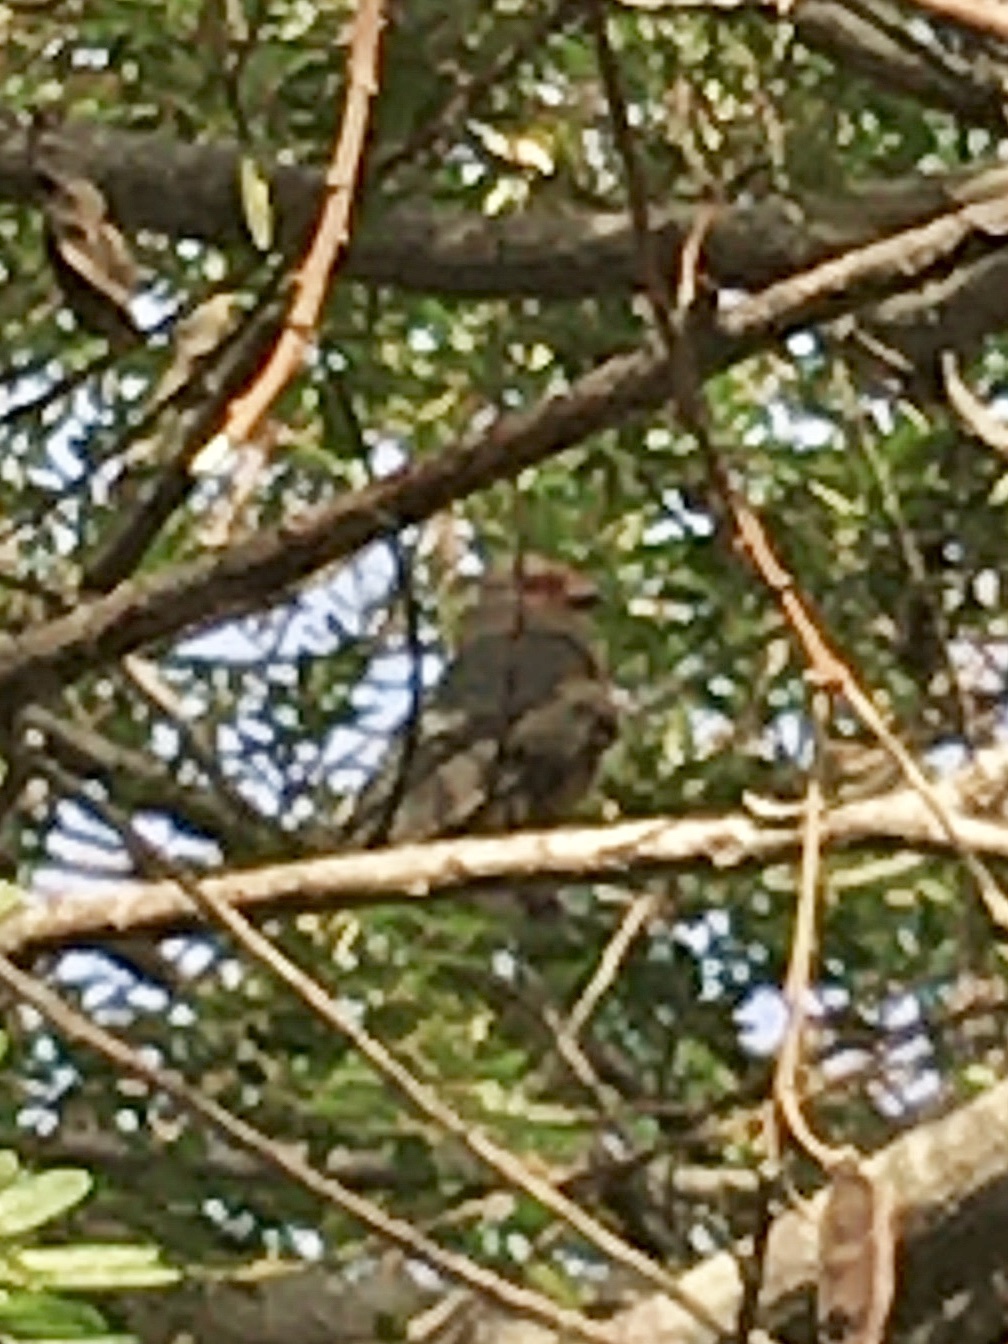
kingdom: Animalia
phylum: Chordata
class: Aves
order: Coliiformes
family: Coliidae
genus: Urocolius
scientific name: Urocolius indicus
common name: Red-faced mousebird
